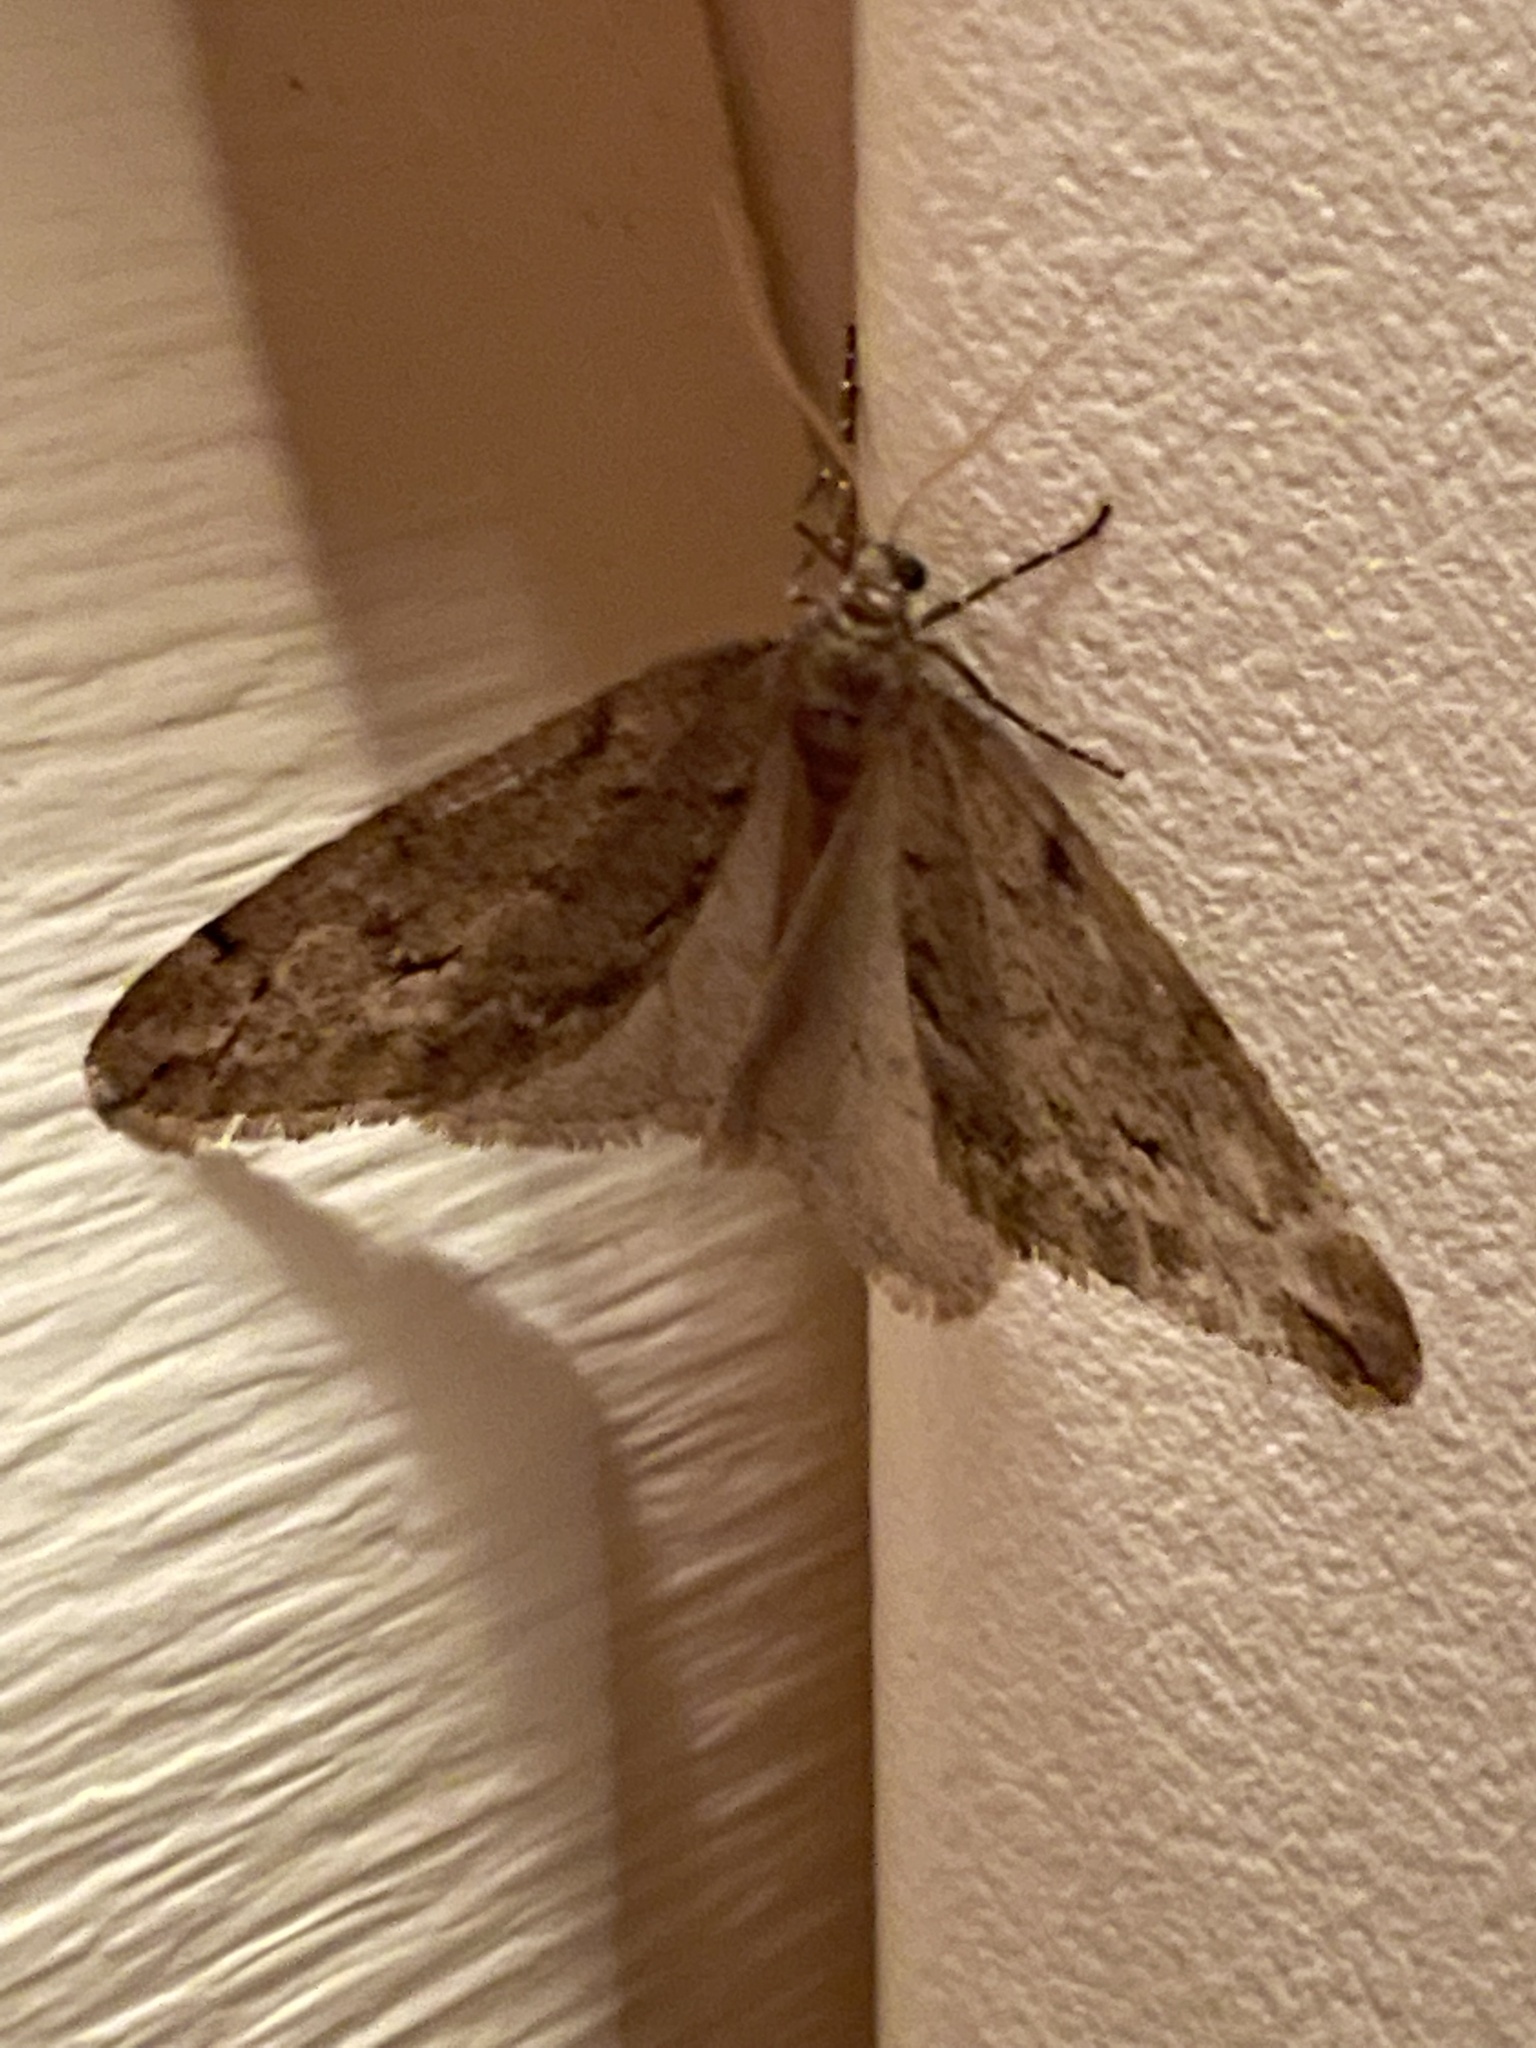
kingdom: Animalia
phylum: Arthropoda
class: Insecta
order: Lepidoptera
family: Geometridae
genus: Paleacrita
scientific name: Paleacrita vernata
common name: Spring cankerworm
